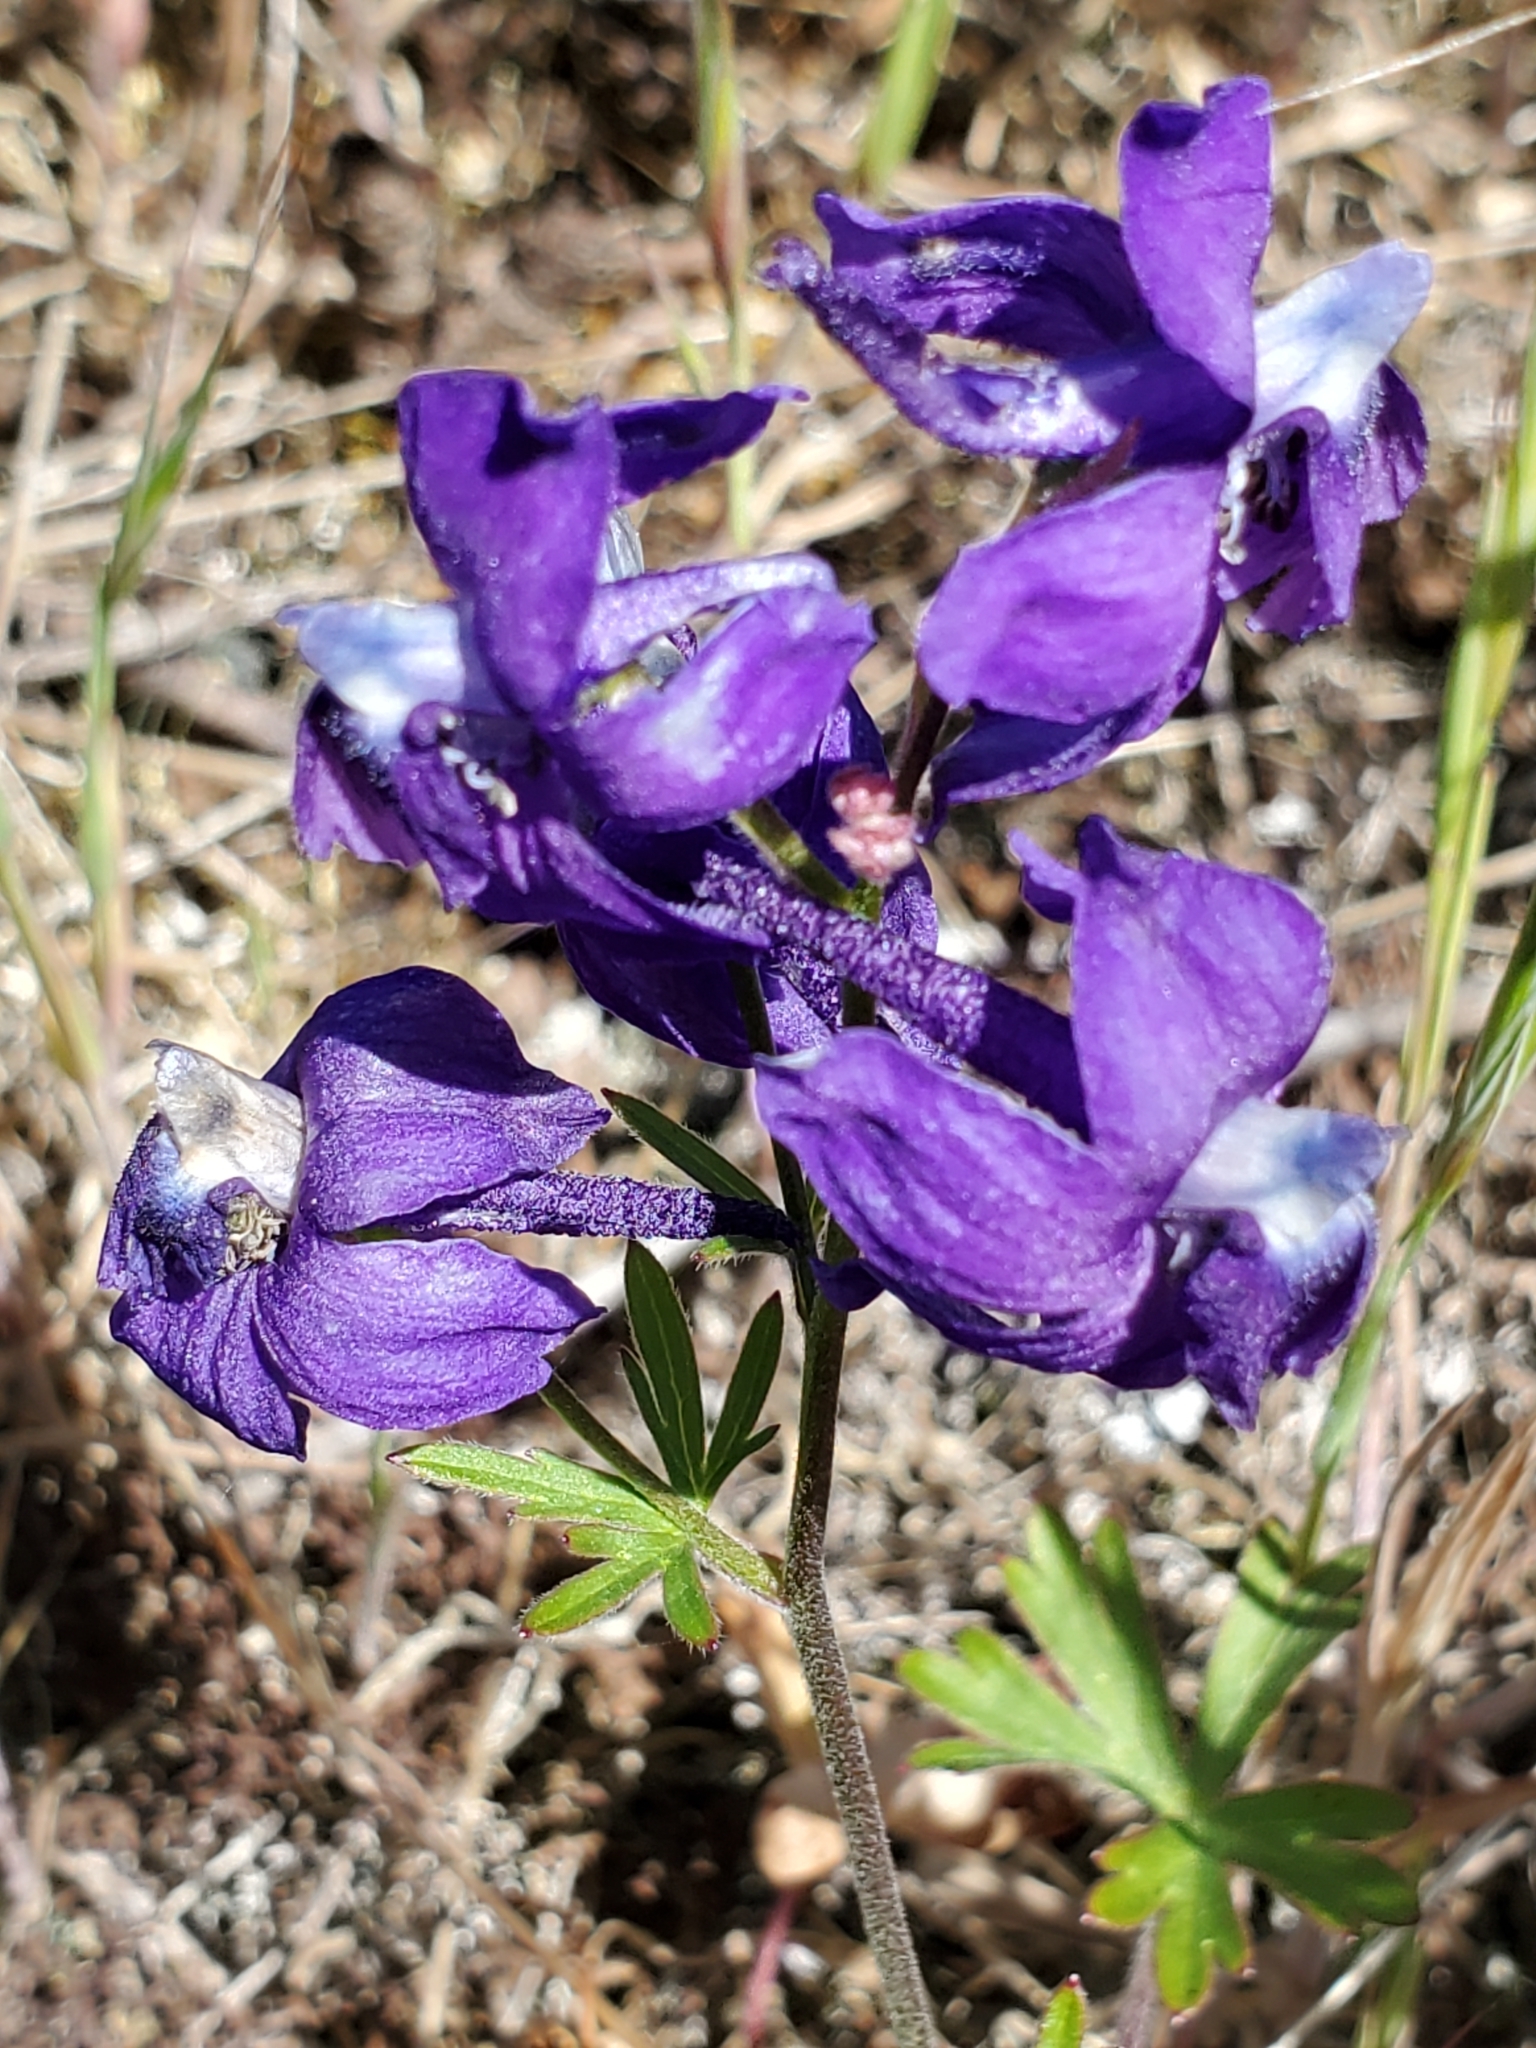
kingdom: Plantae
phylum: Tracheophyta
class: Magnoliopsida
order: Ranunculales
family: Ranunculaceae
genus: Delphinium
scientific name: Delphinium menziesii
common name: Menzies's larkspur
